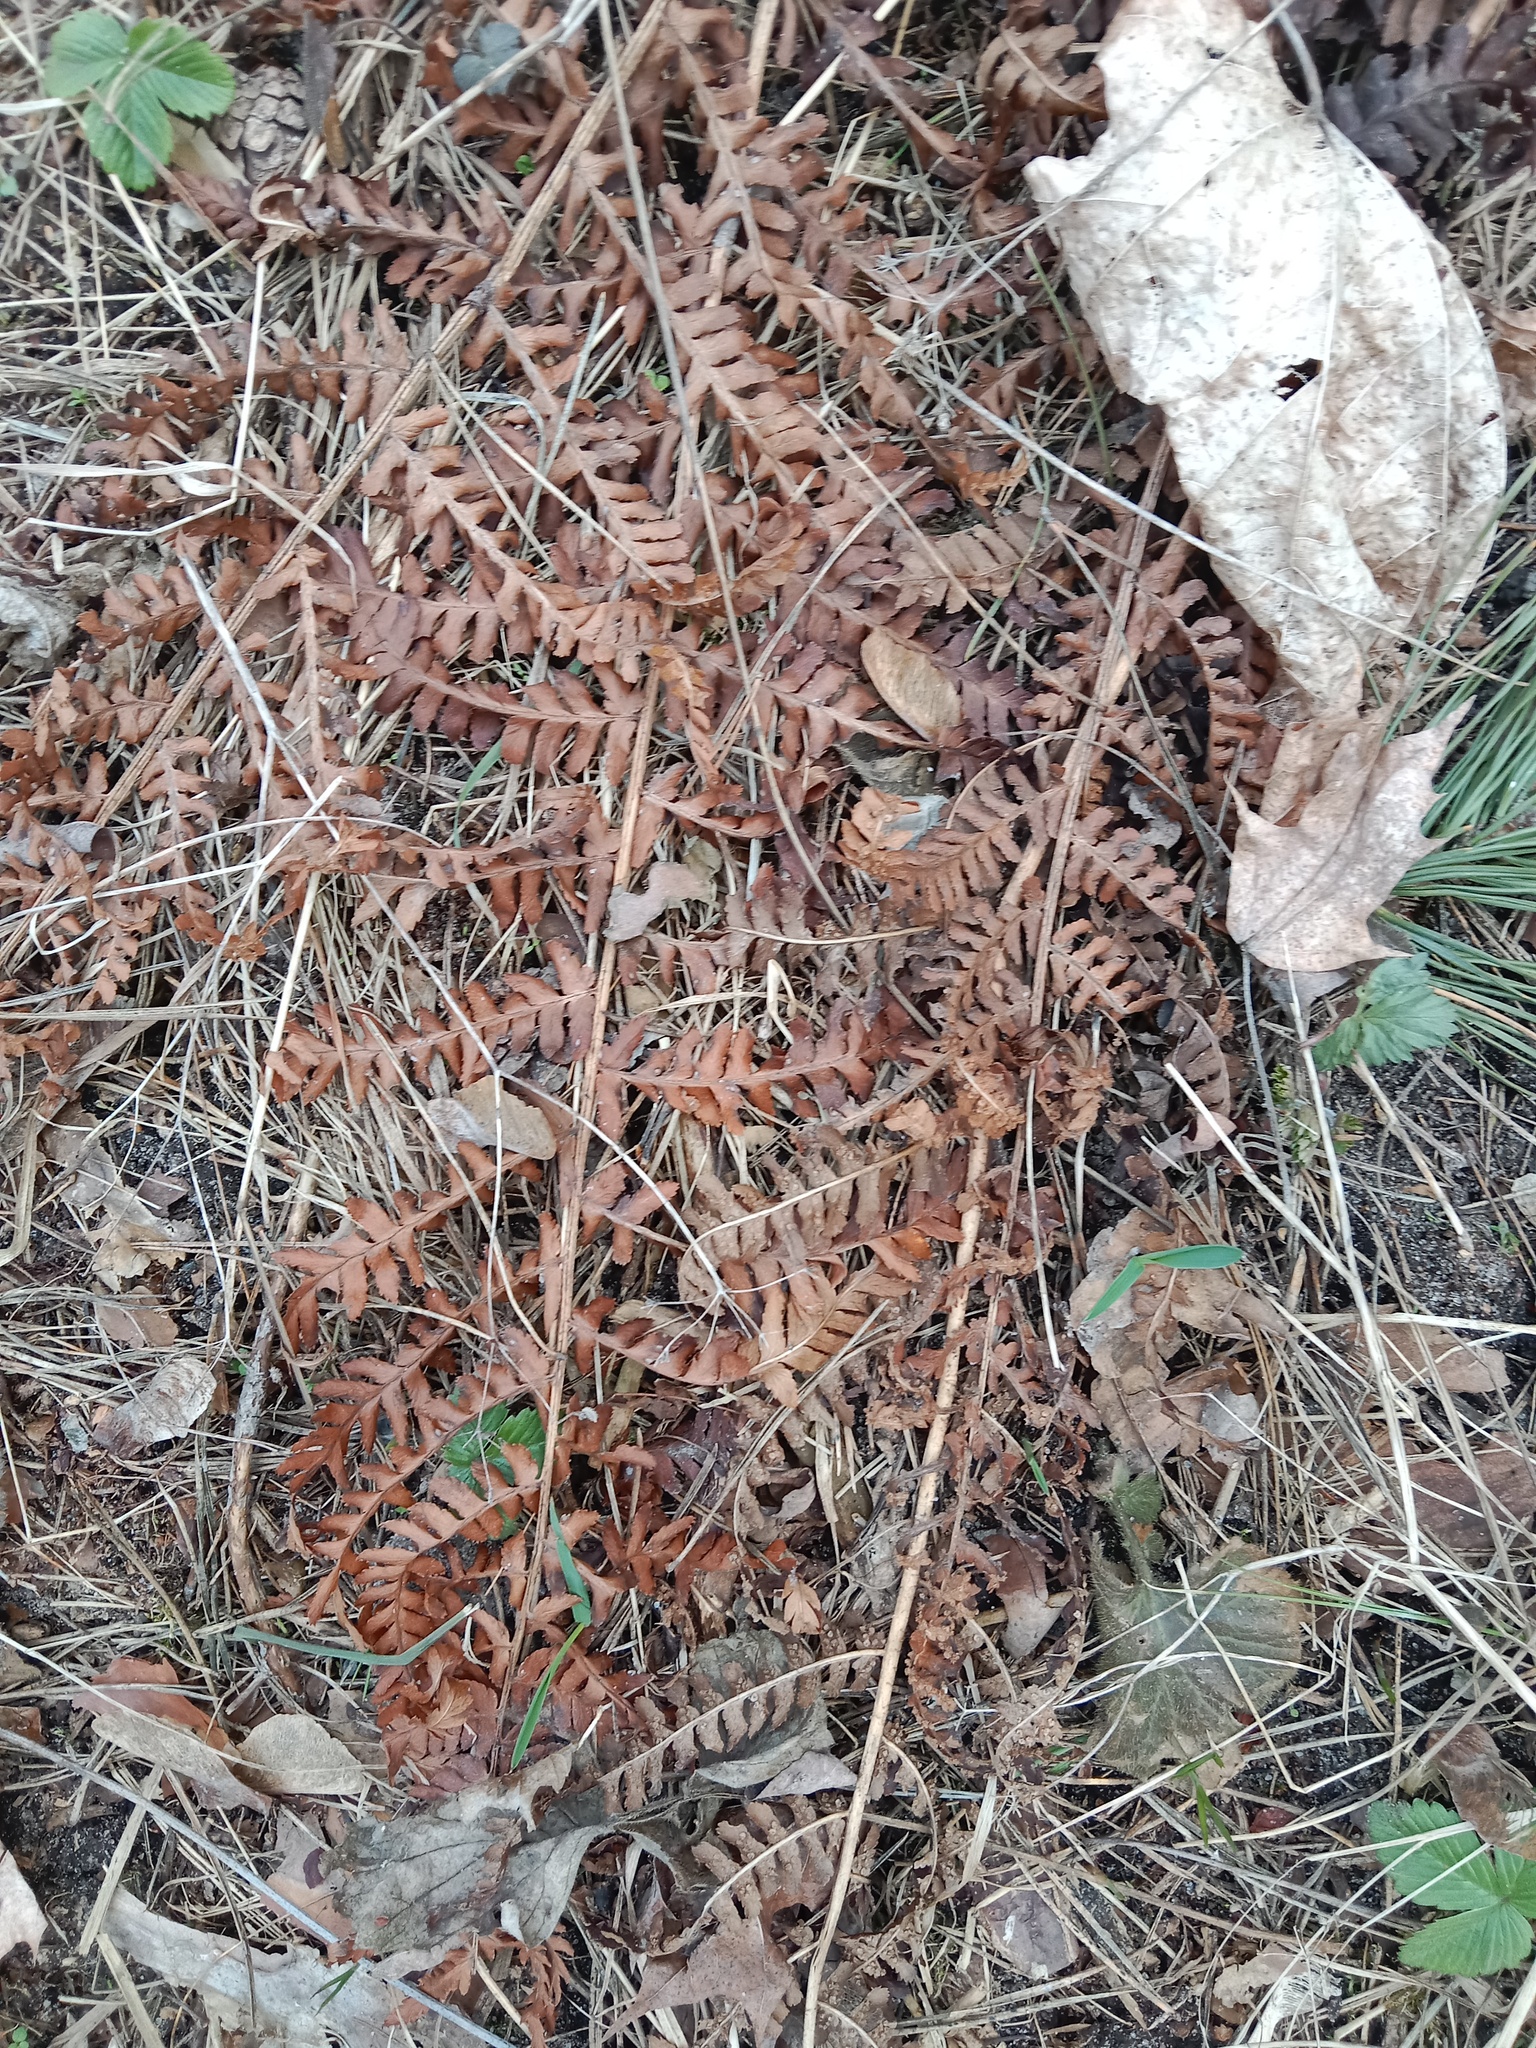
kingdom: Plantae
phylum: Tracheophyta
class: Polypodiopsida
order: Polypodiales
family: Dennstaedtiaceae
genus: Pteridium
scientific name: Pteridium aquilinum
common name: Bracken
